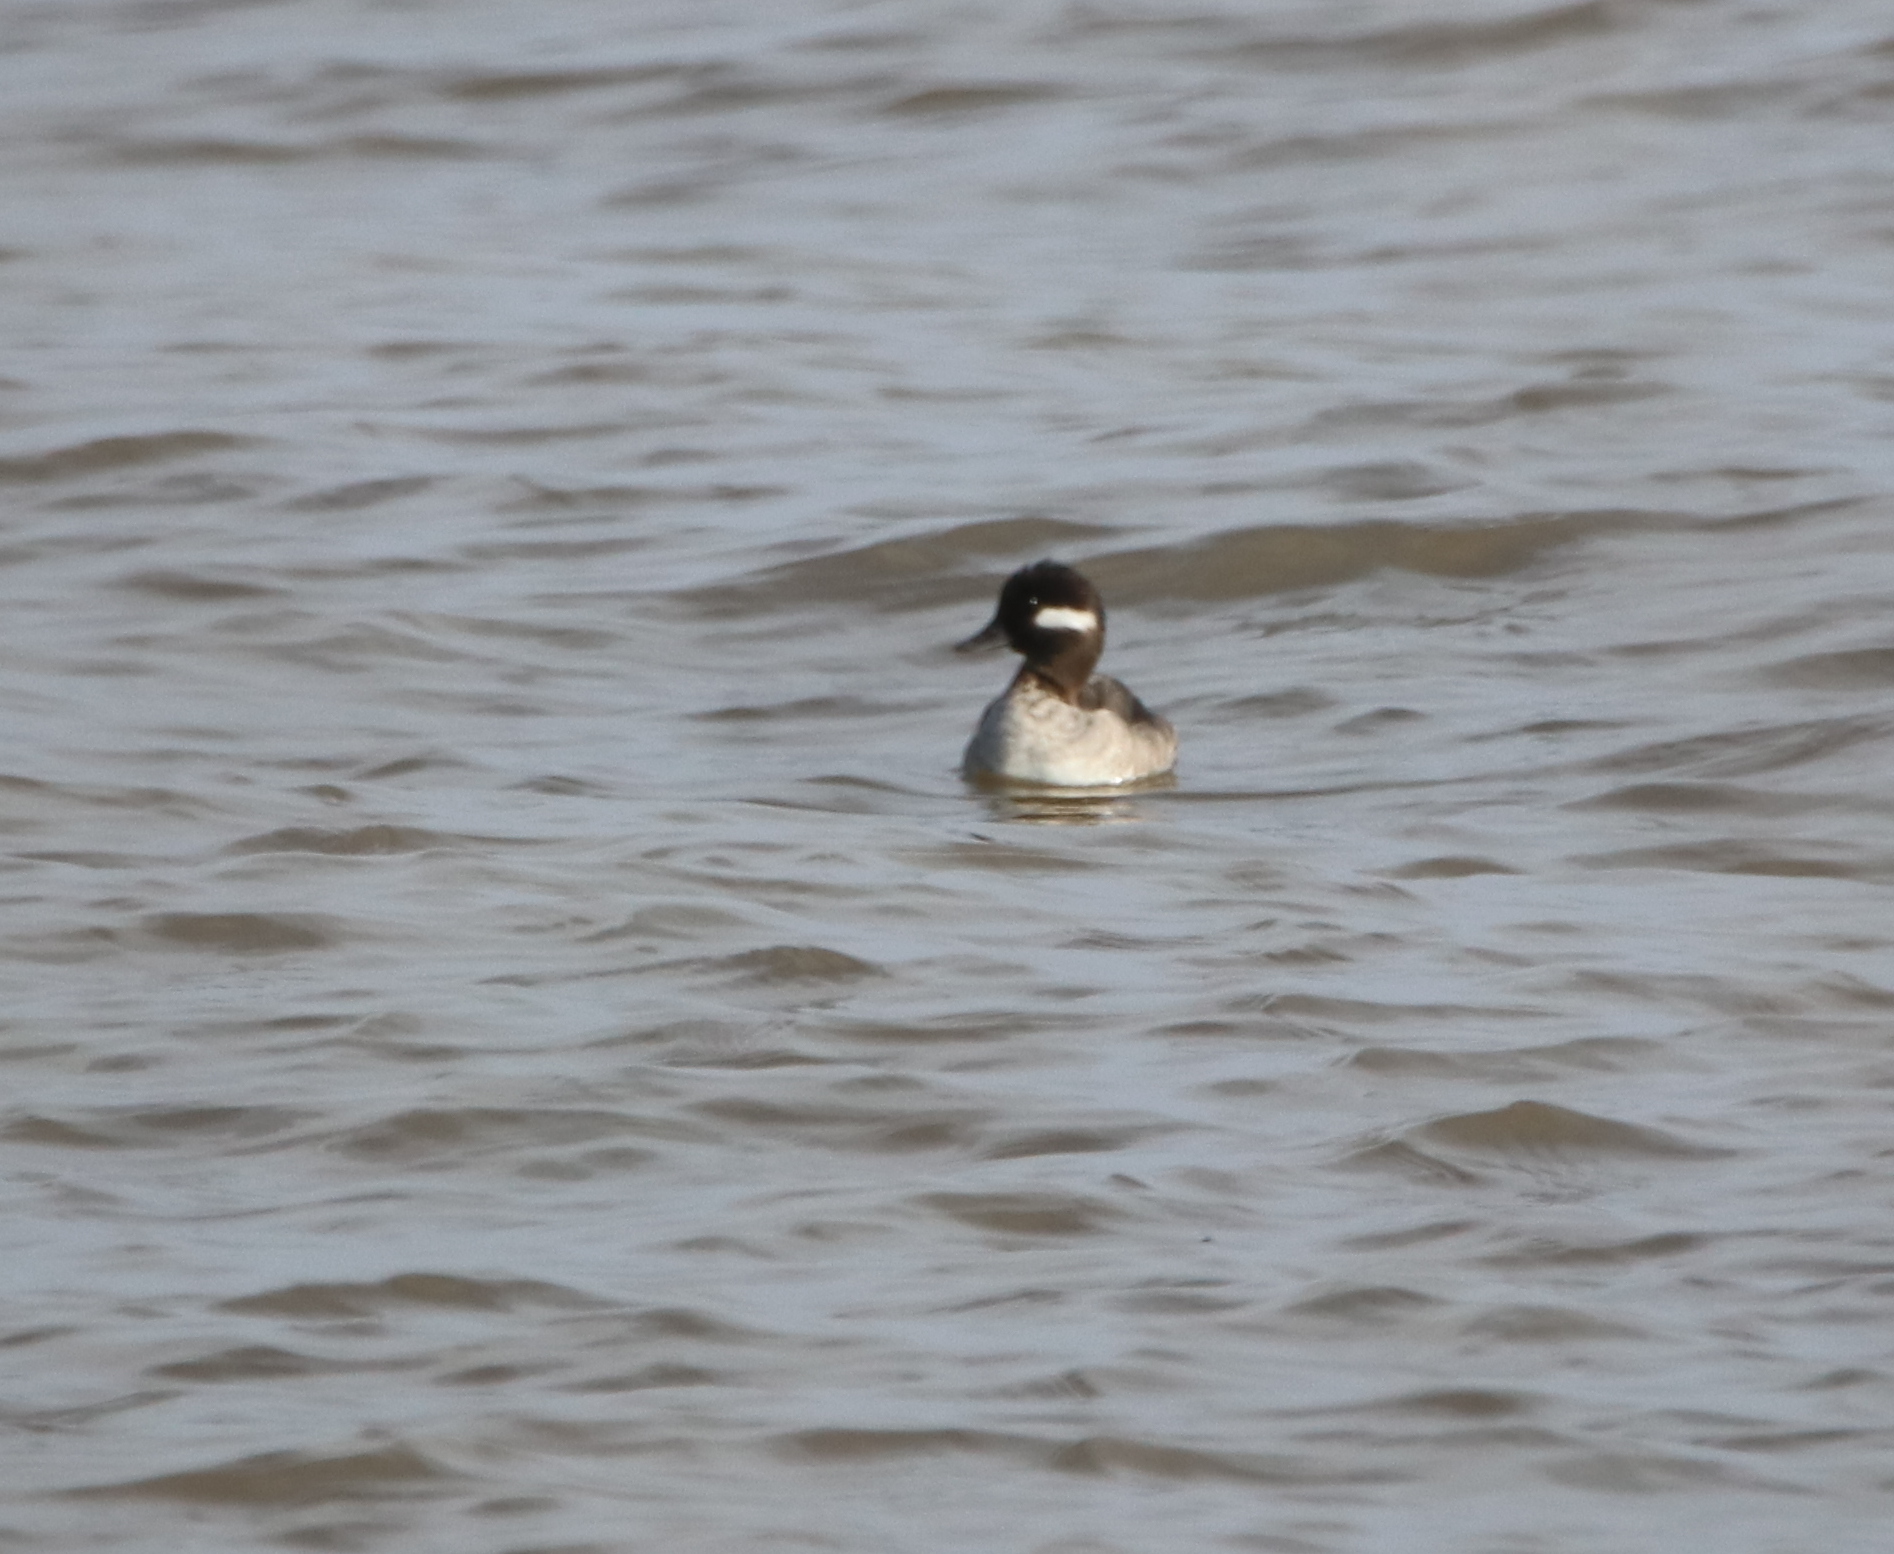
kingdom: Animalia
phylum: Chordata
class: Aves
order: Anseriformes
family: Anatidae
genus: Bucephala
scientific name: Bucephala albeola
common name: Bufflehead
